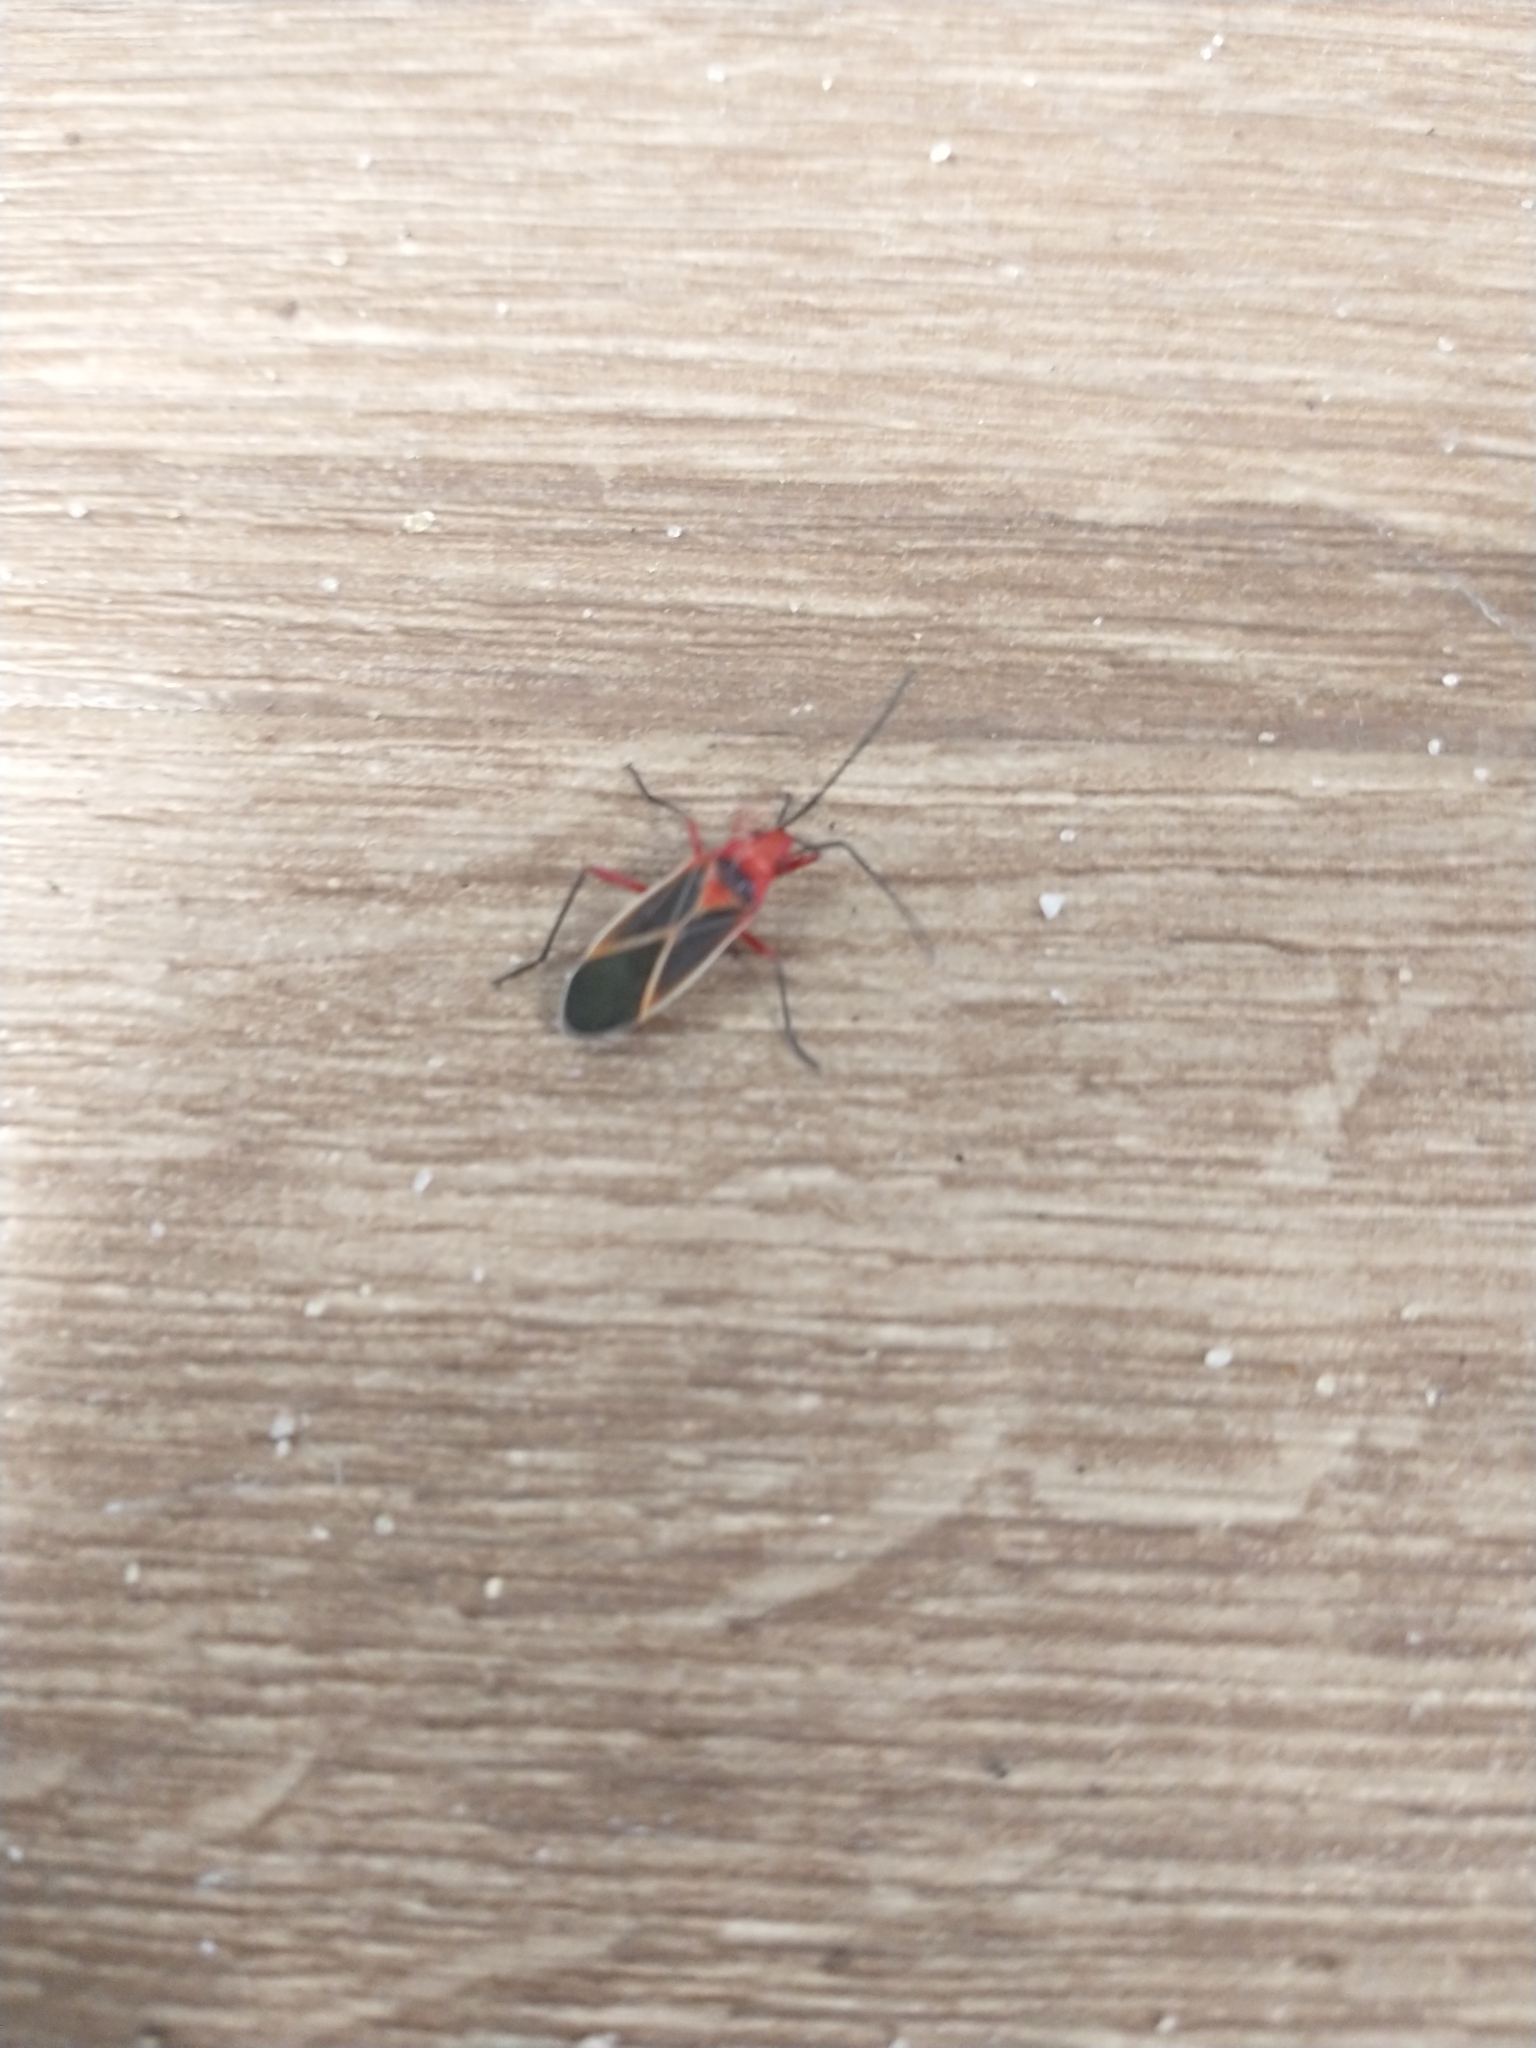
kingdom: Animalia
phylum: Arthropoda
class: Insecta
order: Hemiptera
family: Pyrrhocoridae
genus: Dysdercus
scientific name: Dysdercus suturellus
